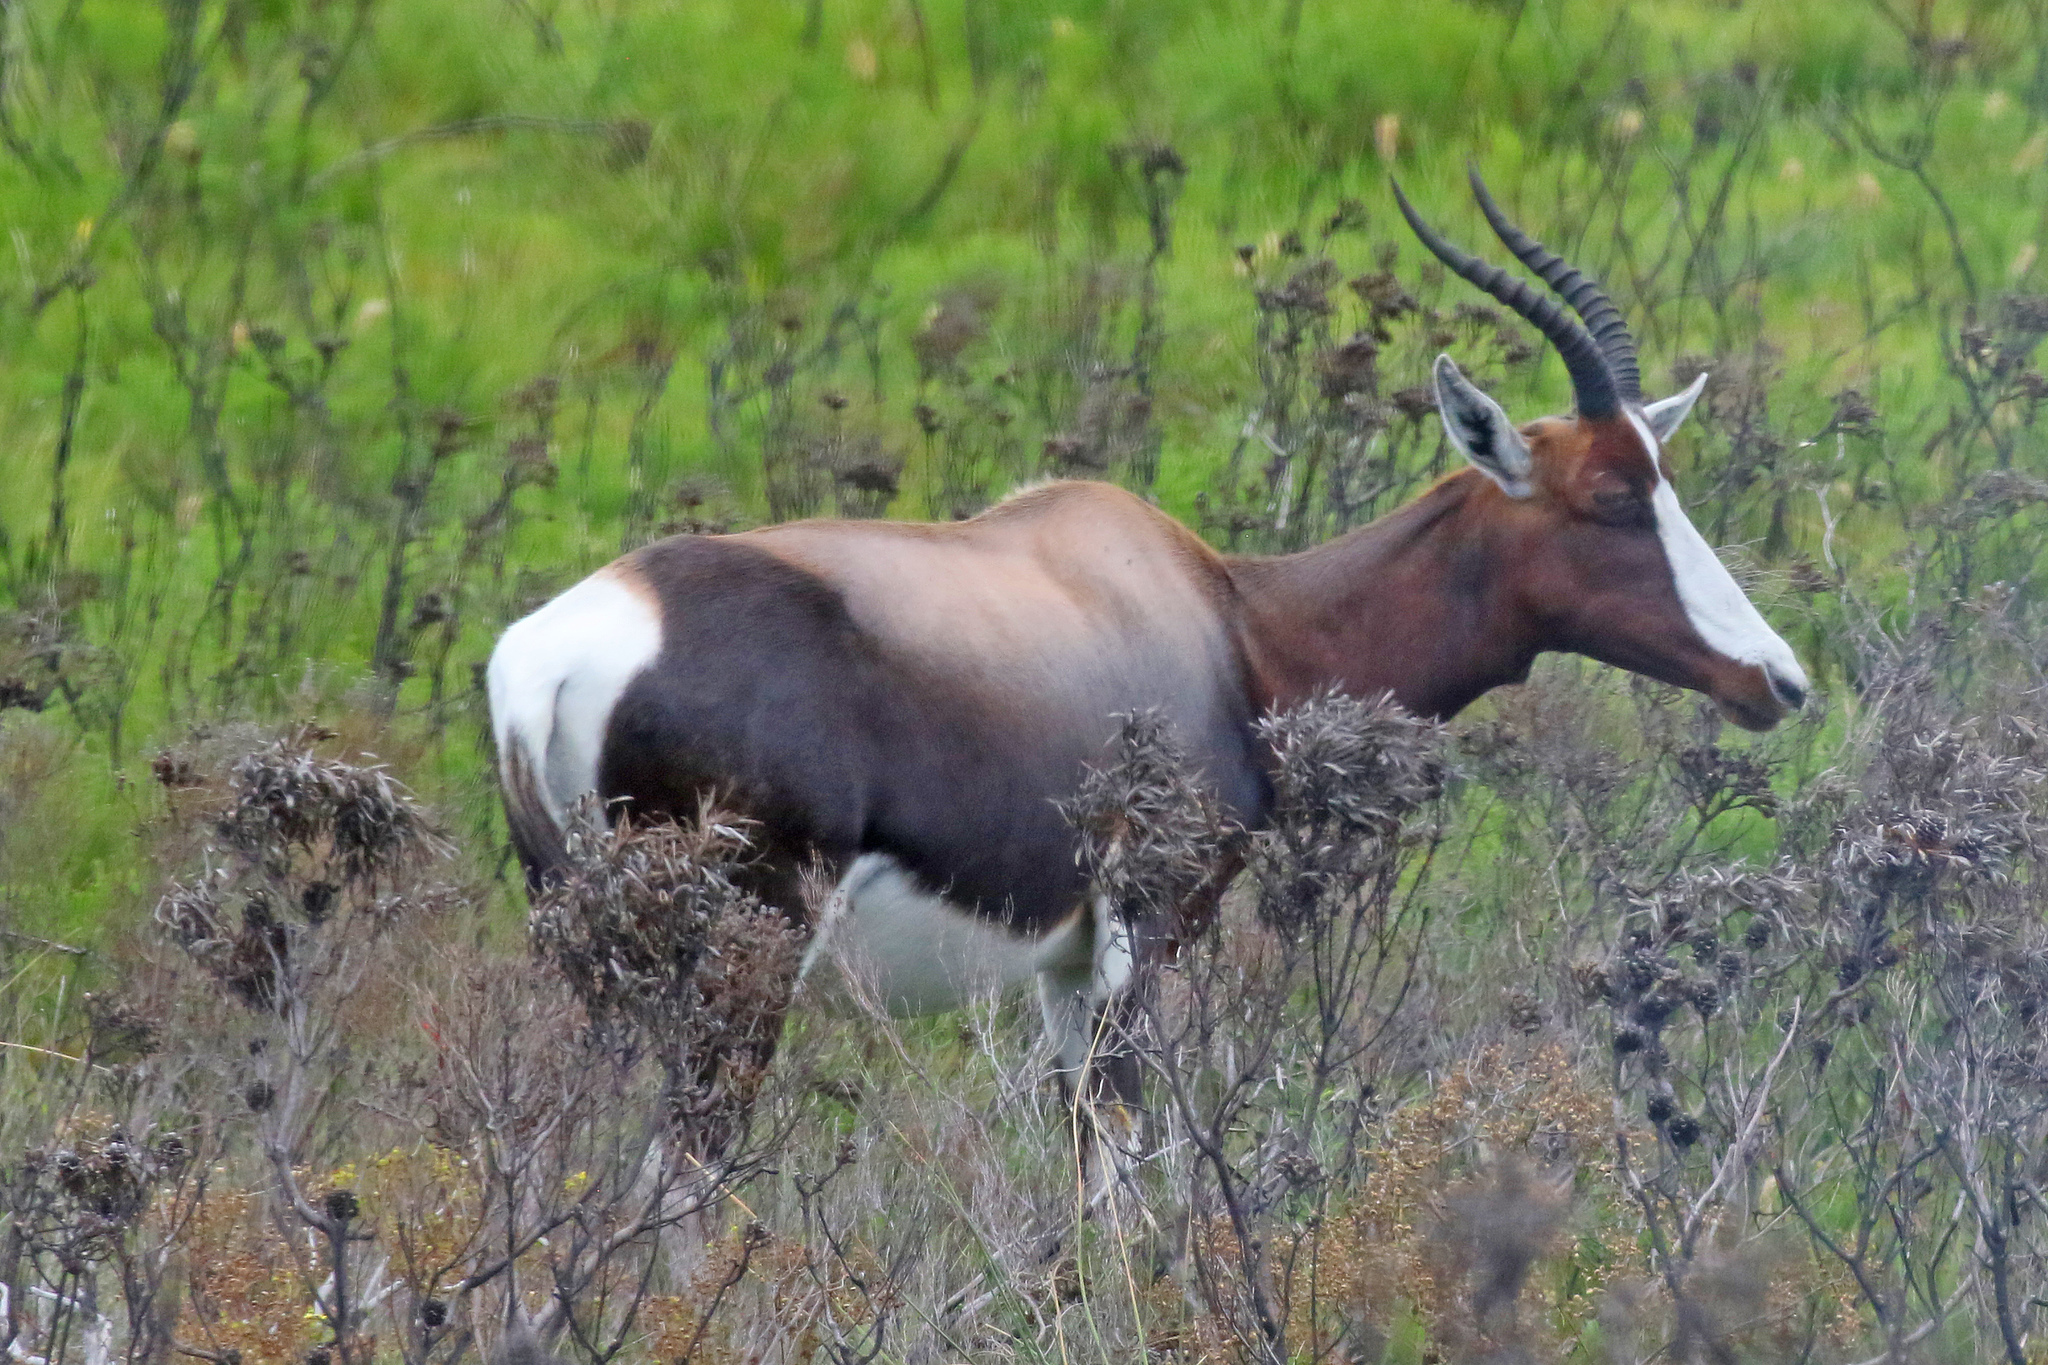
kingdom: Animalia
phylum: Chordata
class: Mammalia
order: Artiodactyla
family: Bovidae
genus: Damaliscus
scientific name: Damaliscus pygargus
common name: Bontebok
